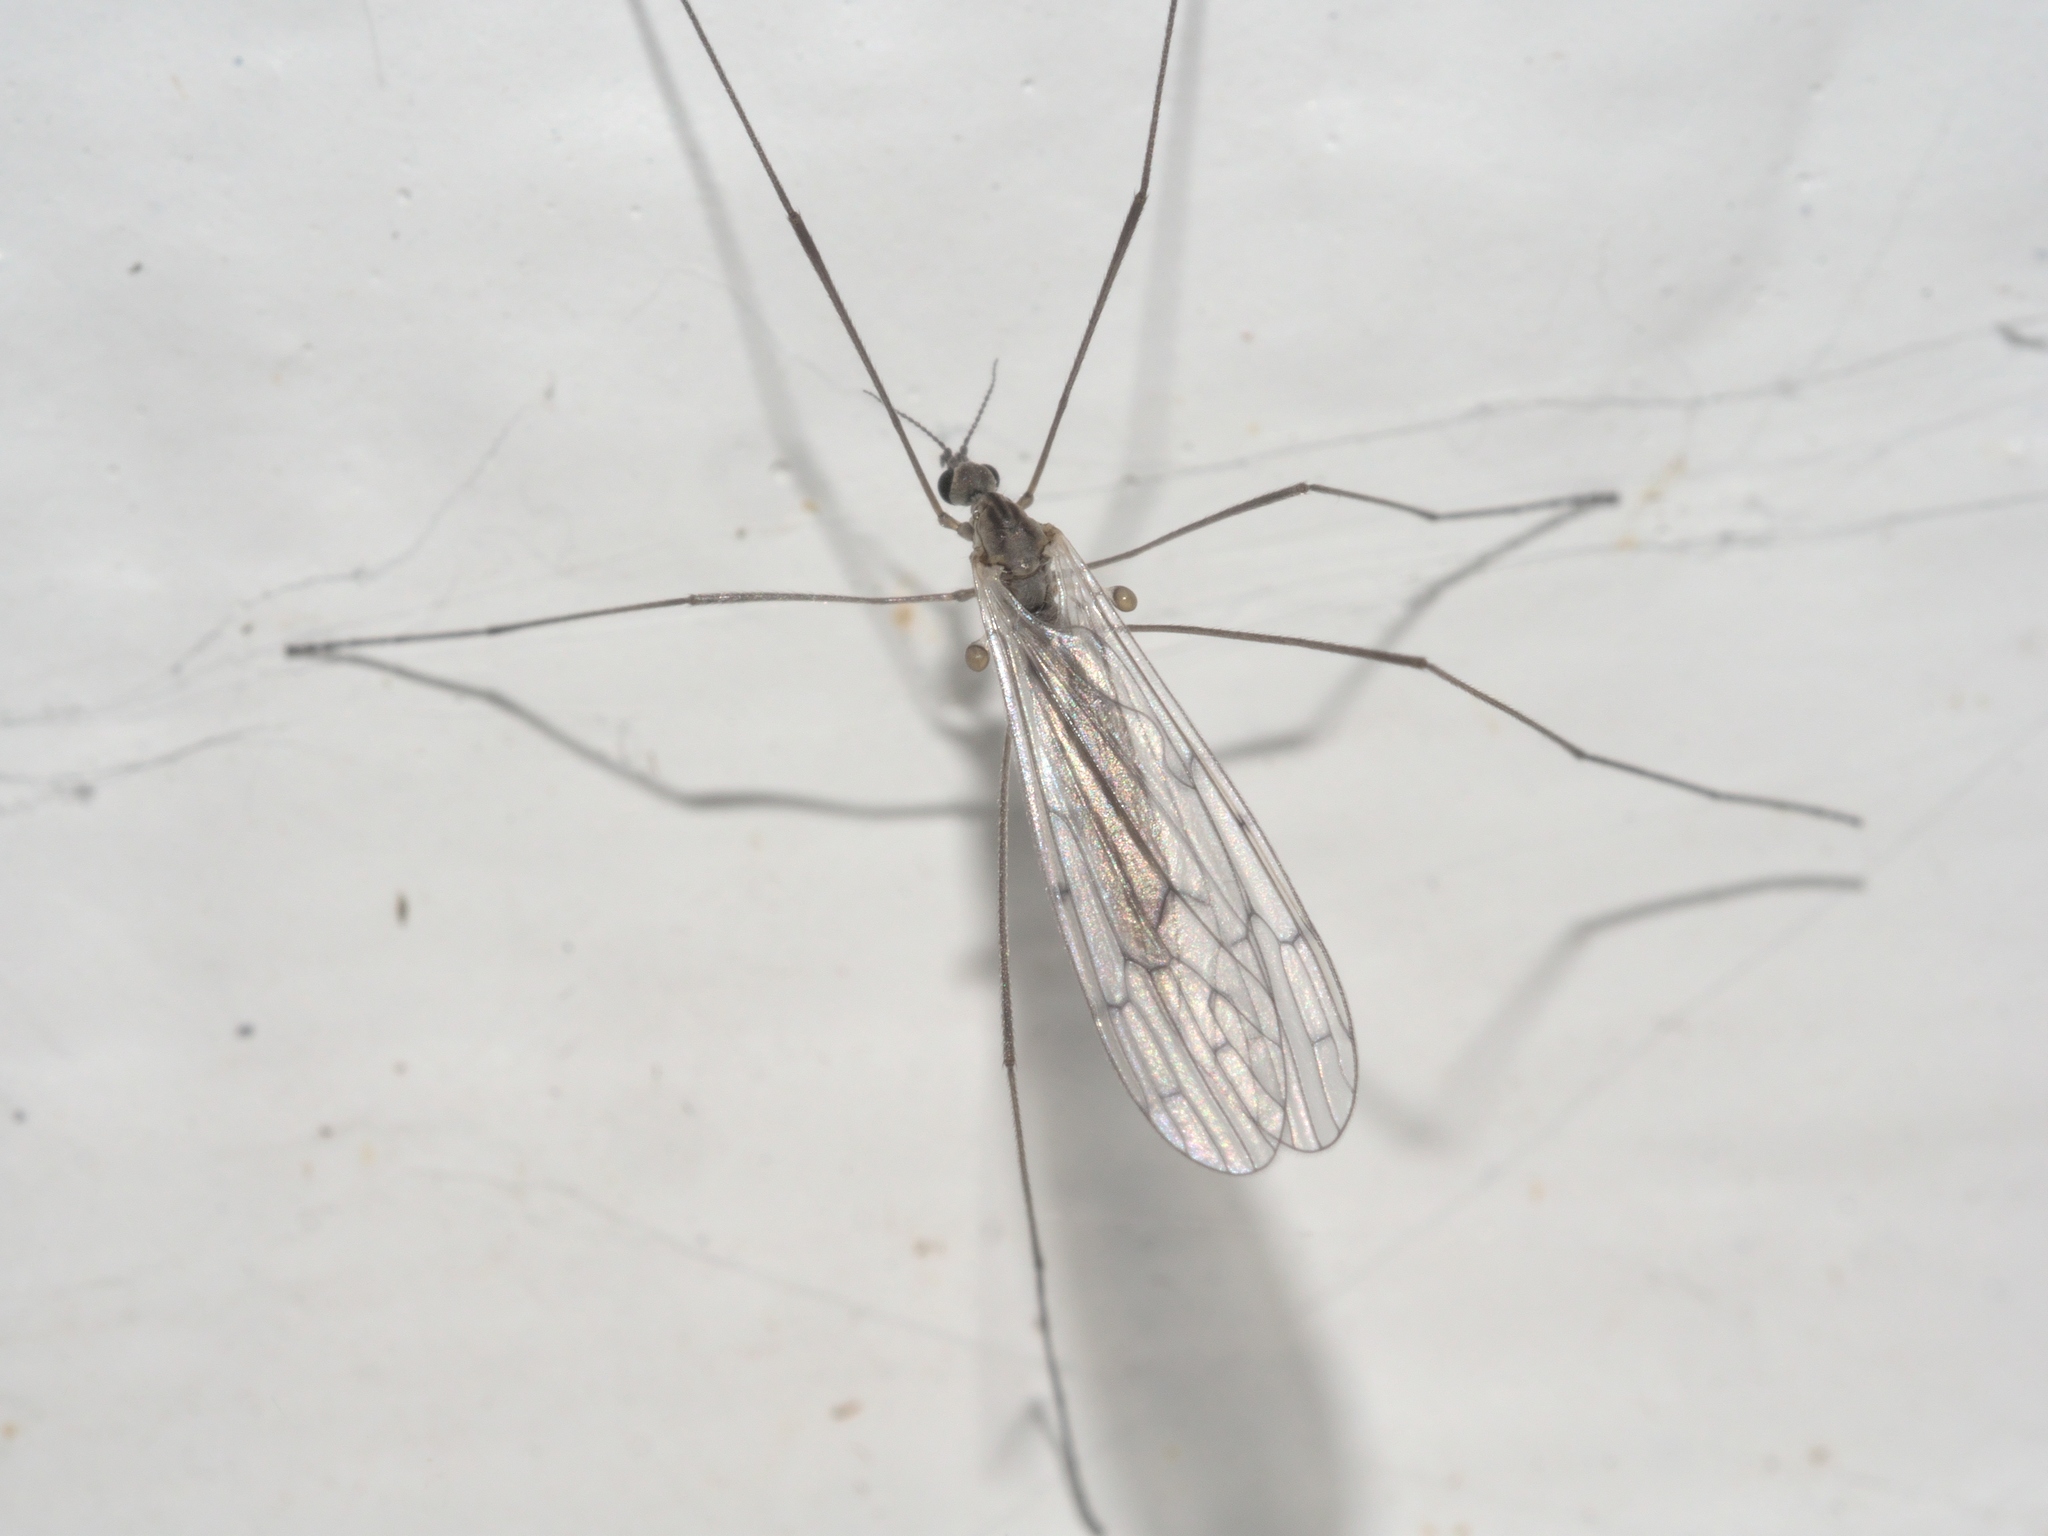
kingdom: Animalia
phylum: Arthropoda
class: Insecta
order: Diptera
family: Limoniidae
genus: Symplecta
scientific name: Symplecta cana
